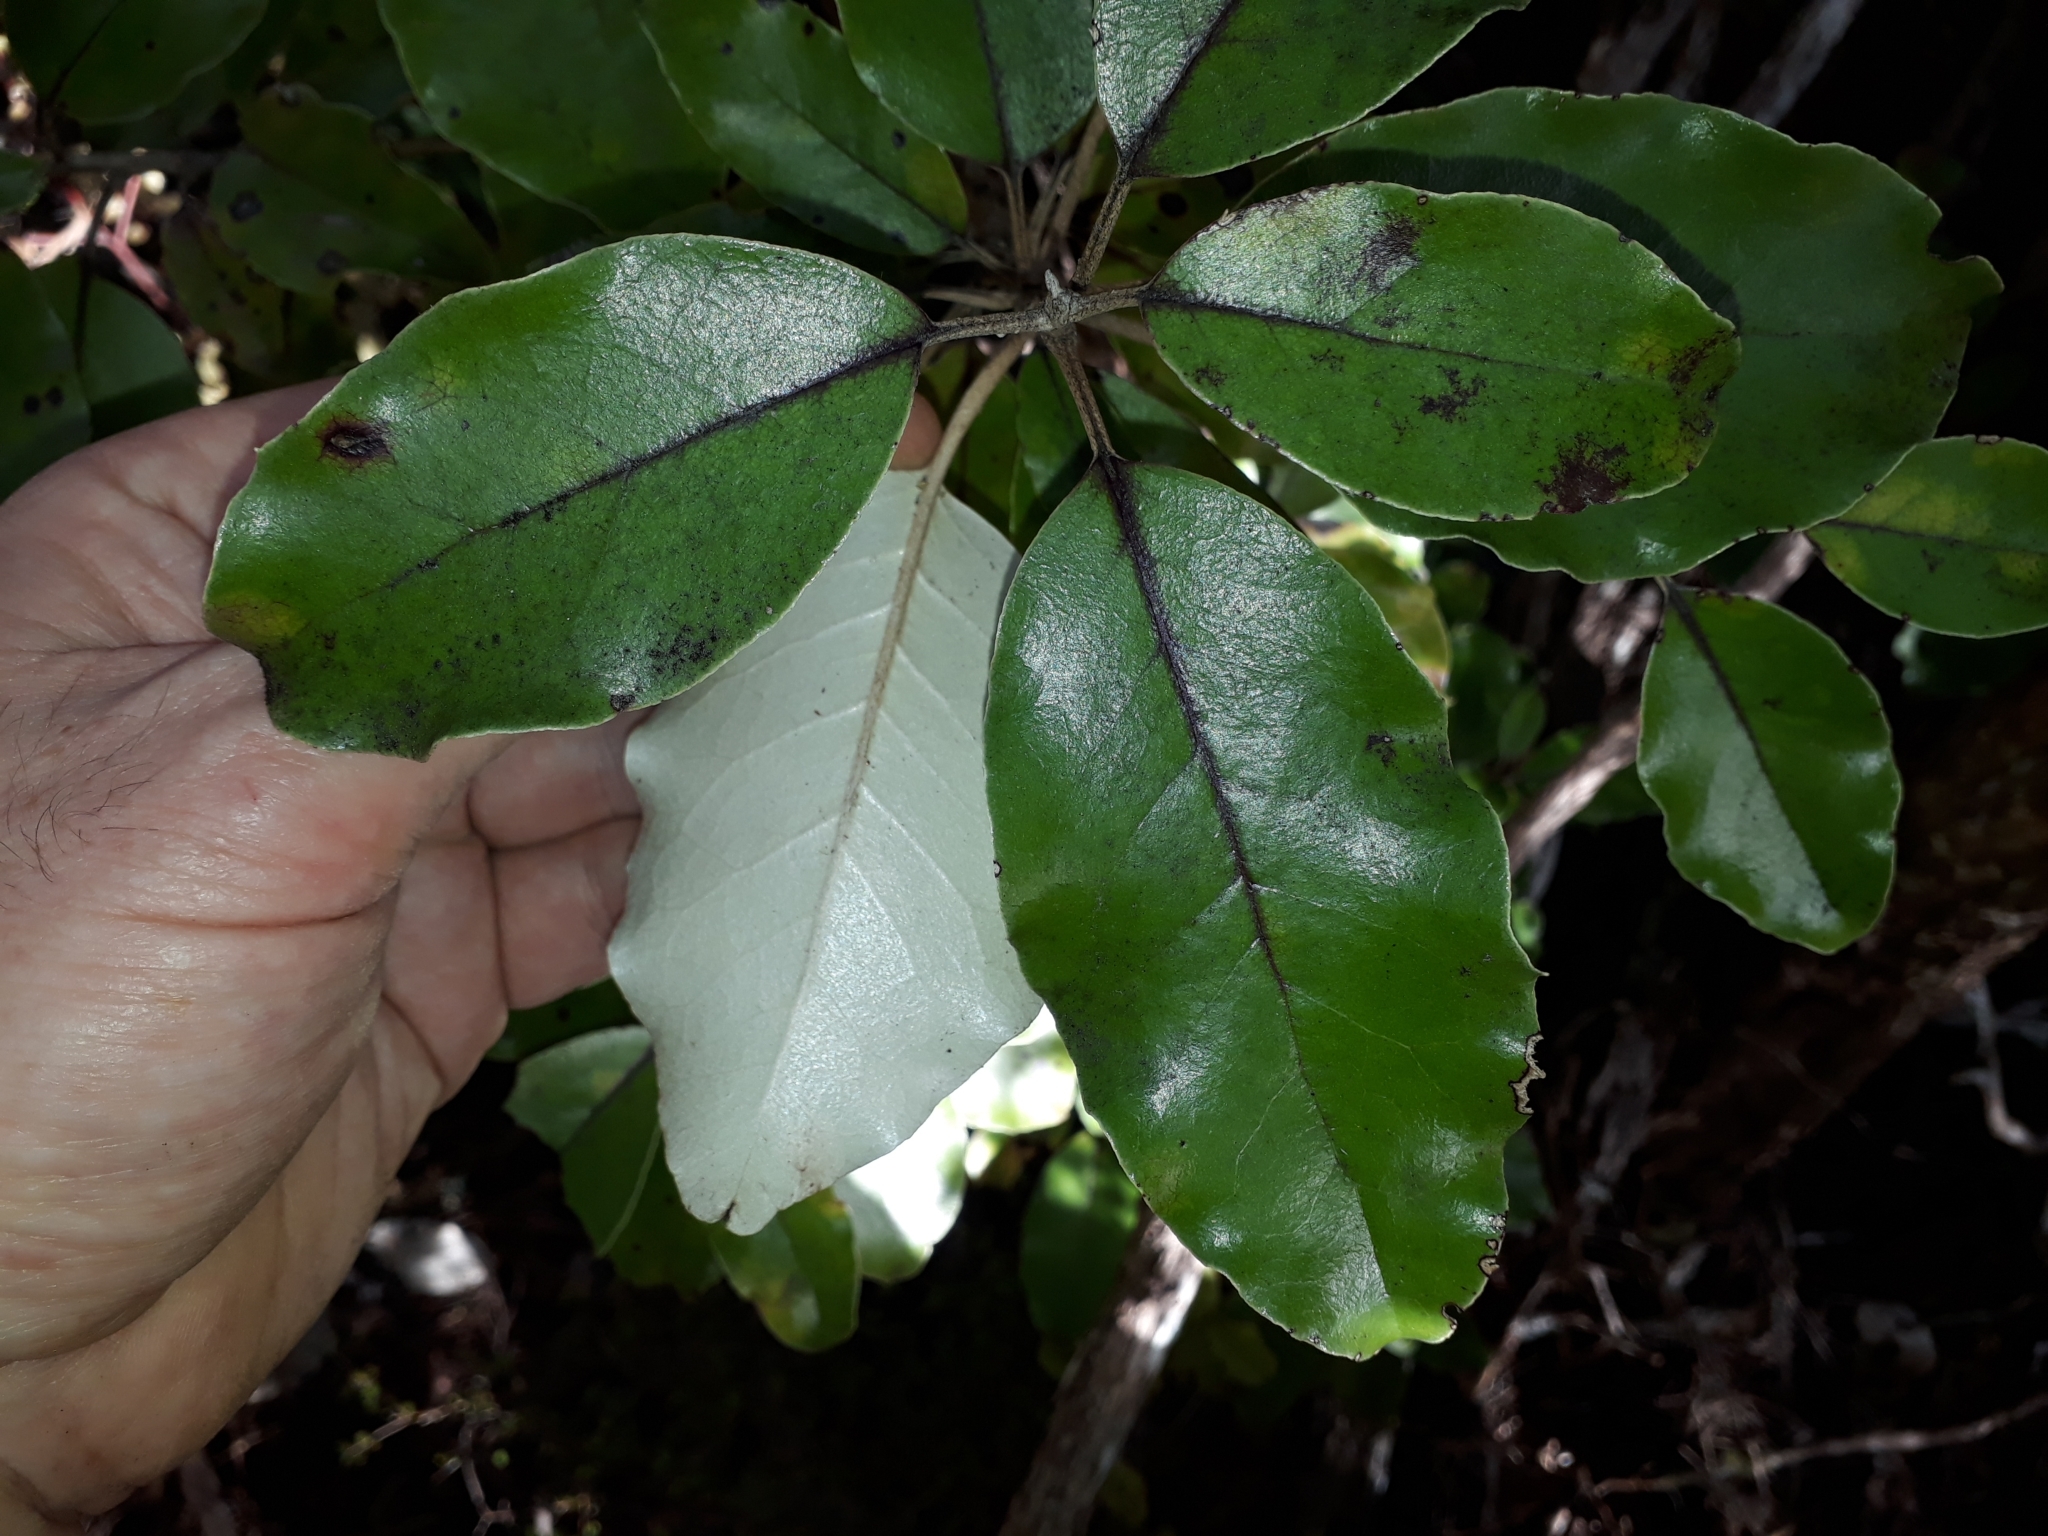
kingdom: Plantae
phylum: Tracheophyta
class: Magnoliopsida
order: Asterales
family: Asteraceae
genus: Olearia
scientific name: Olearia furfuracea
